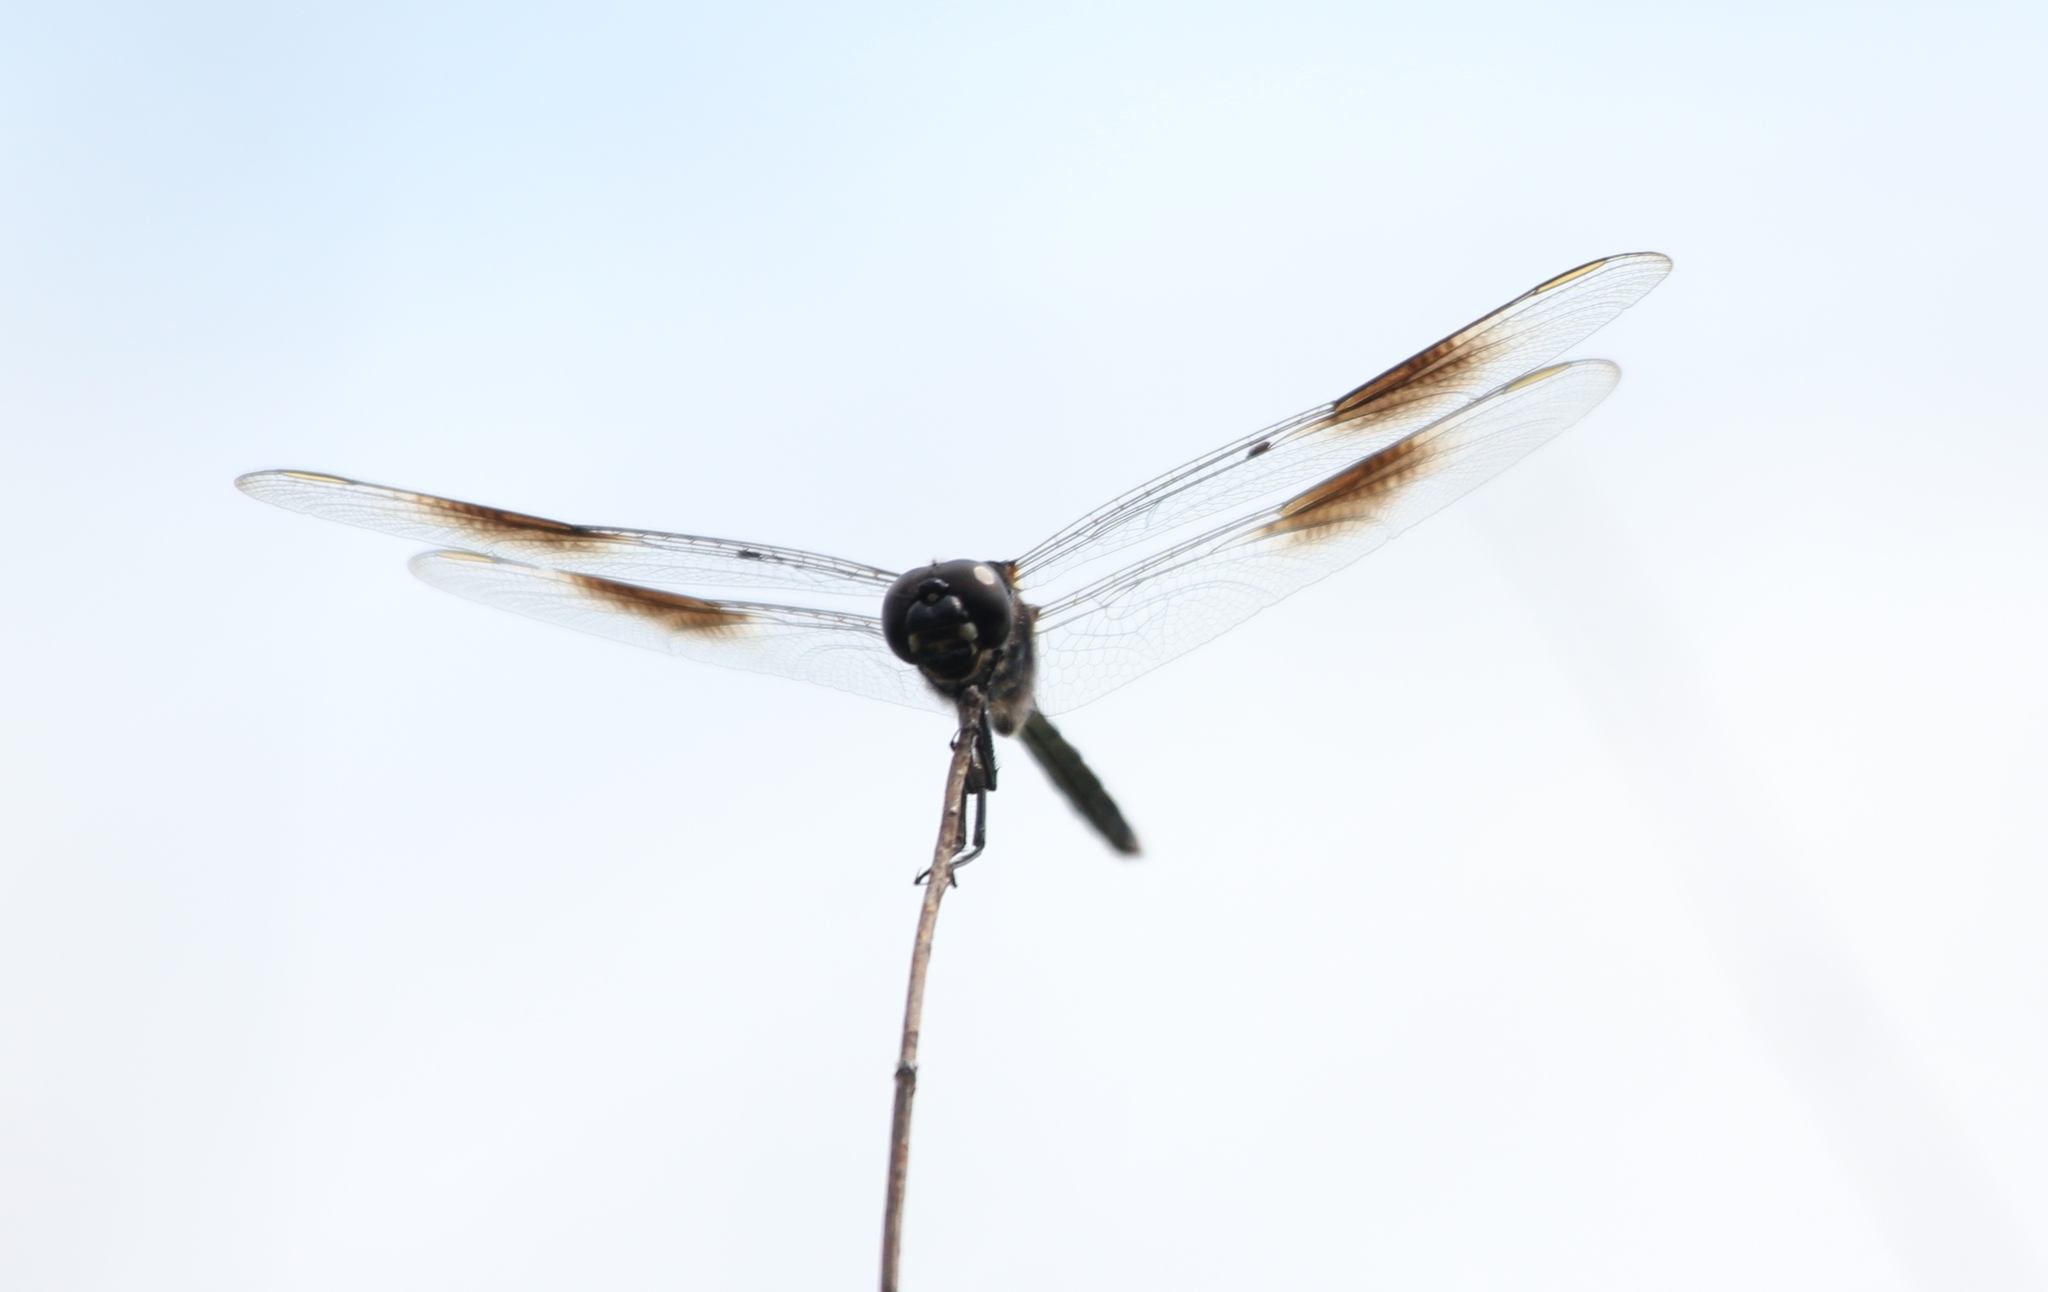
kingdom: Animalia
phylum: Arthropoda
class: Insecta
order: Odonata
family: Libellulidae
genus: Brachymesia
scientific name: Brachymesia gravida
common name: Four-spotted pennant
